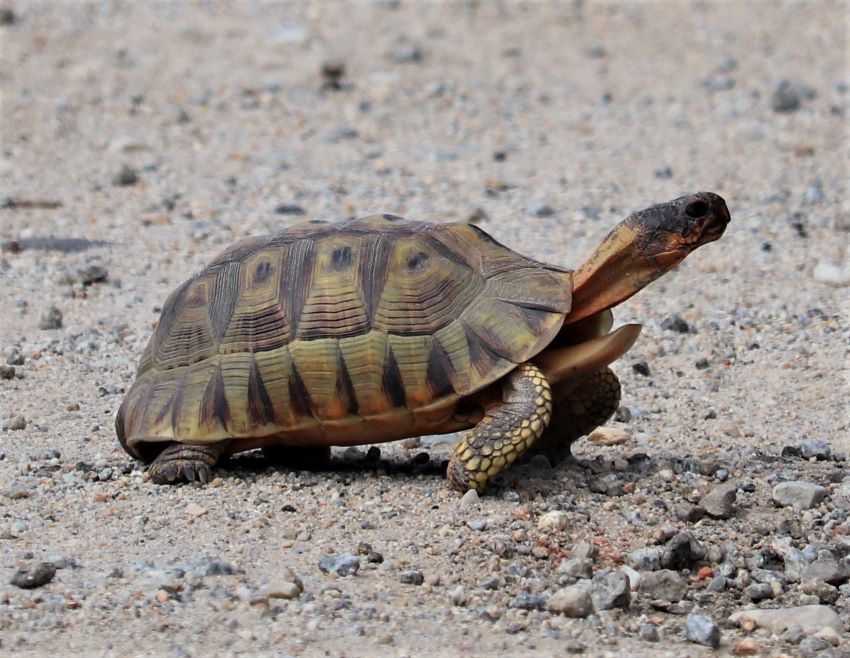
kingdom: Animalia
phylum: Chordata
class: Testudines
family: Testudinidae
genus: Chersina
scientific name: Chersina angulata
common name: South african bowsprit tortoise
